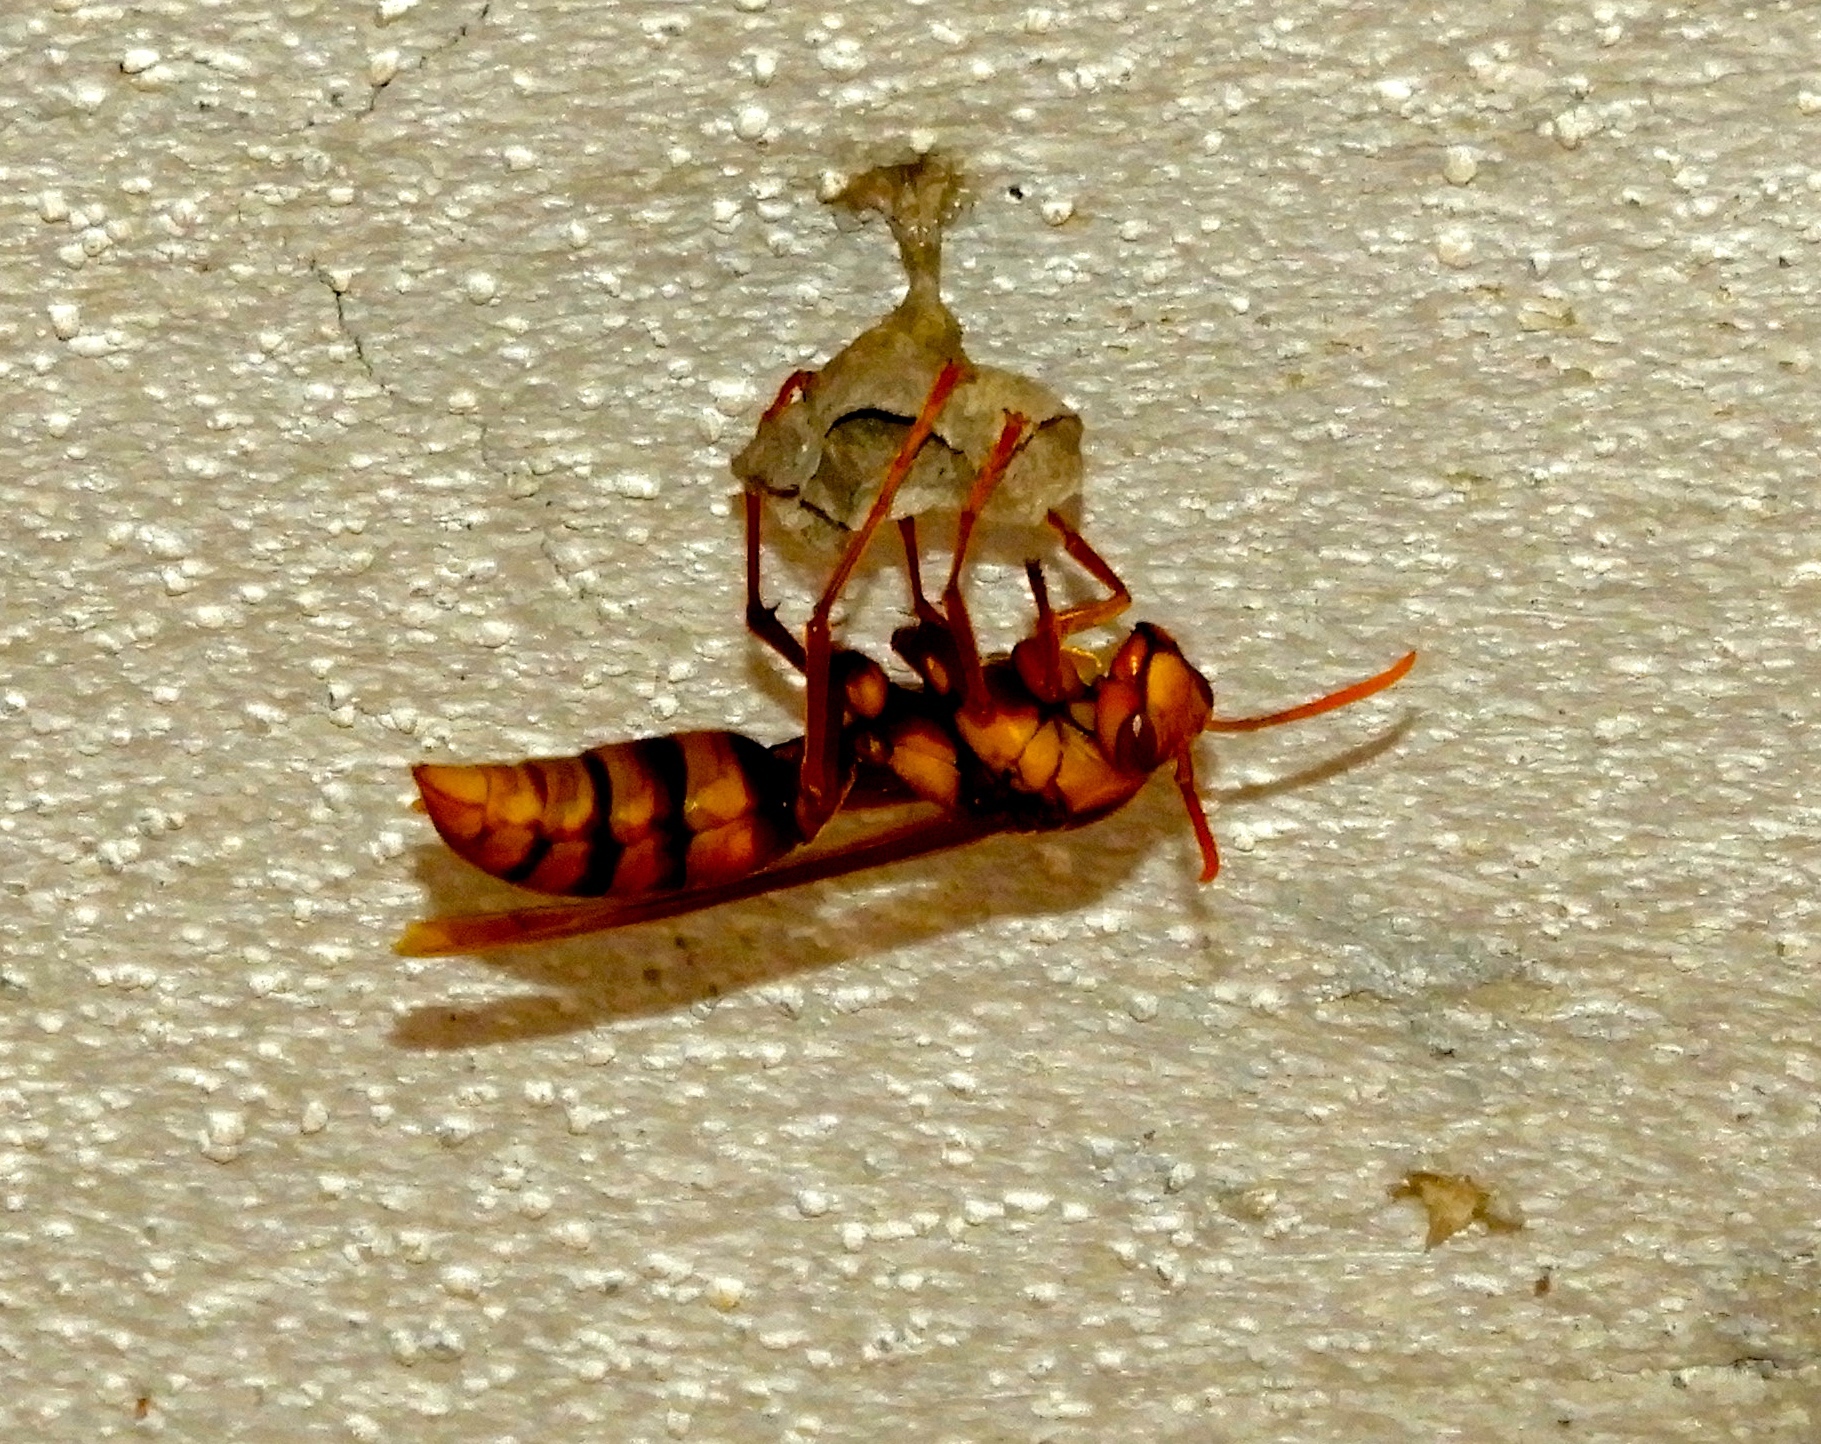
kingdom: Animalia
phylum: Arthropoda
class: Insecta
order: Hymenoptera
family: Eumenidae
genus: Polistes
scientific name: Polistes carnifex
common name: Paper wasp
